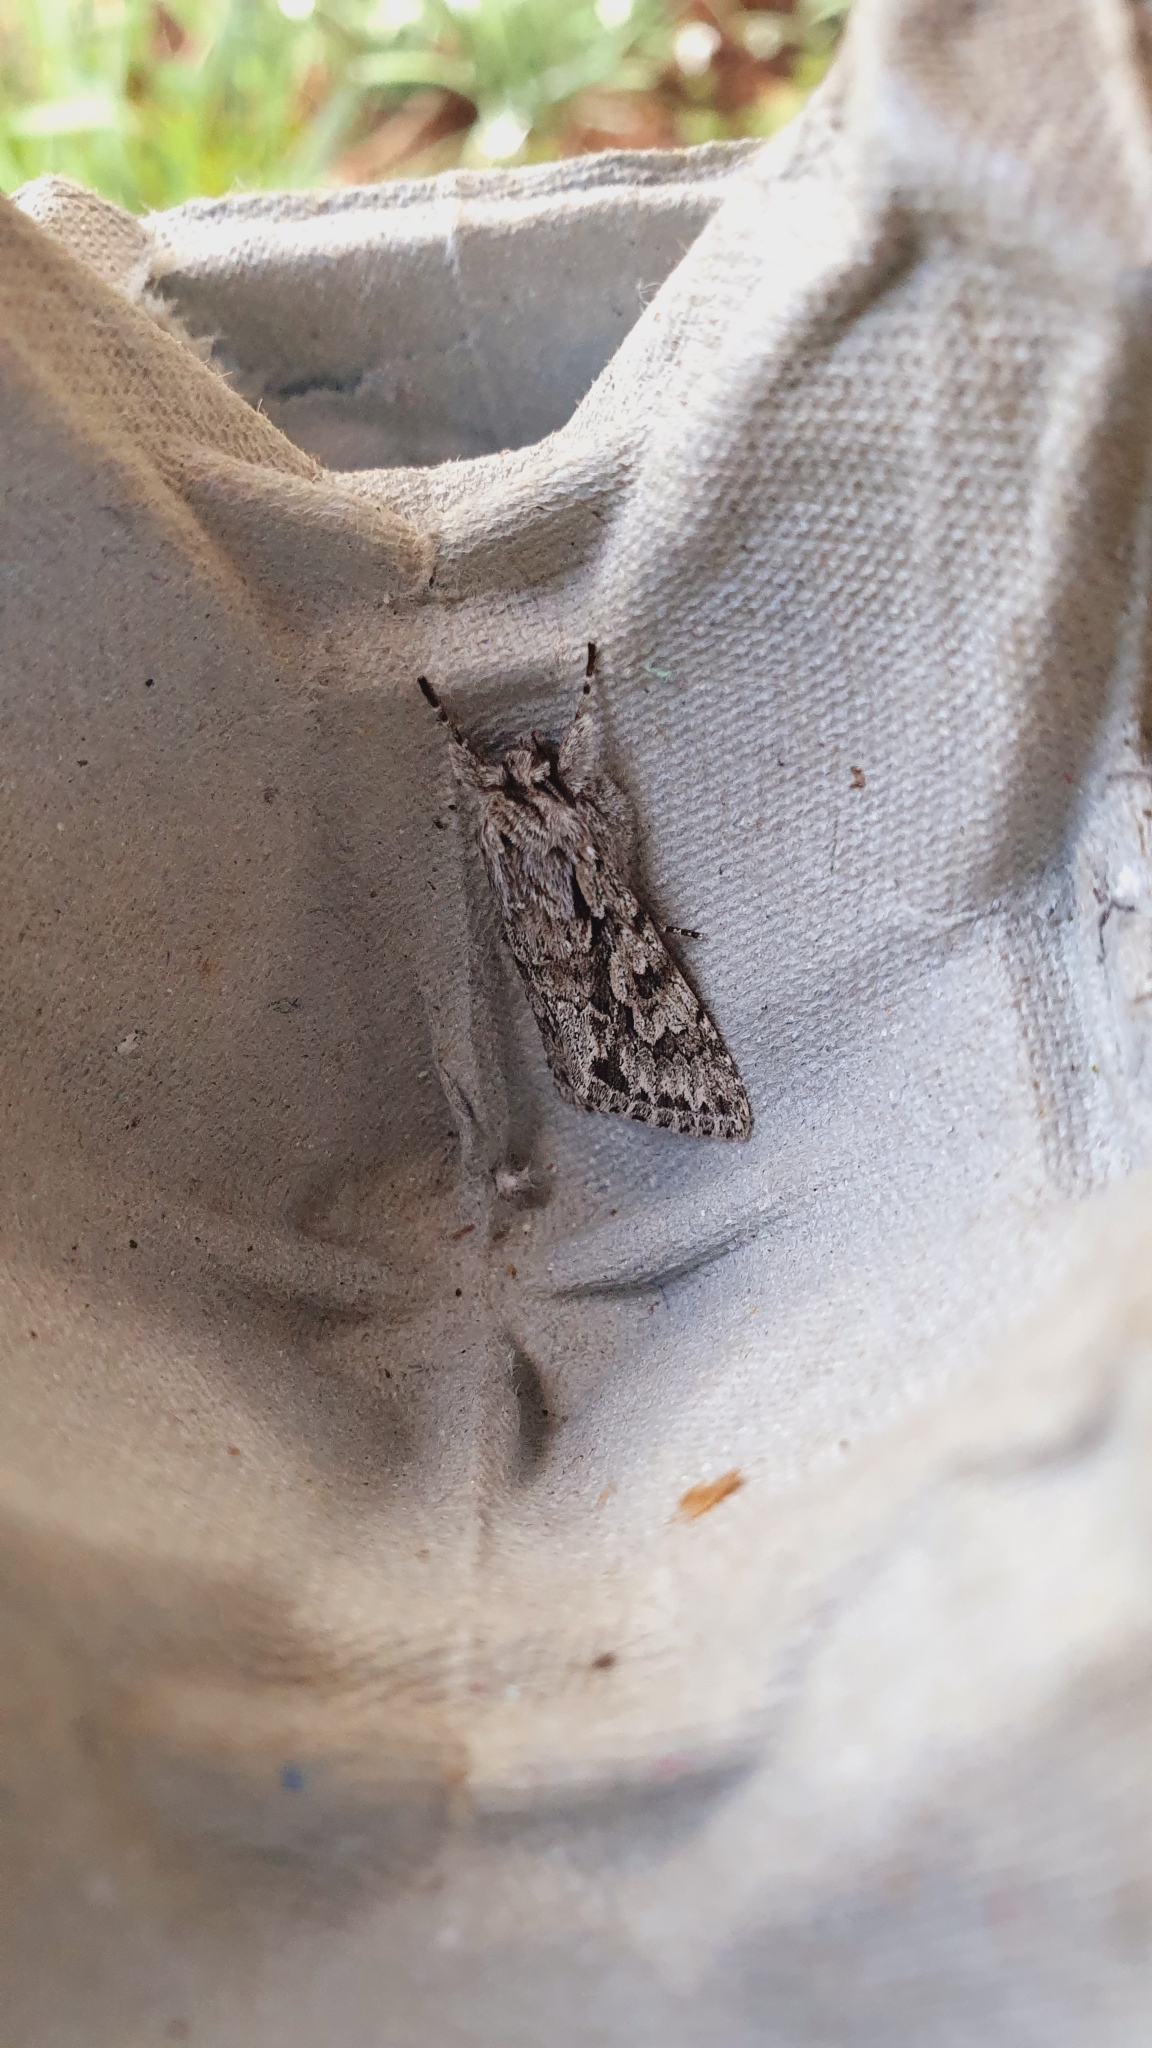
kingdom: Animalia
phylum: Arthropoda
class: Insecta
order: Lepidoptera
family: Noctuidae
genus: Xylocampa
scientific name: Xylocampa areola
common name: Early grey
